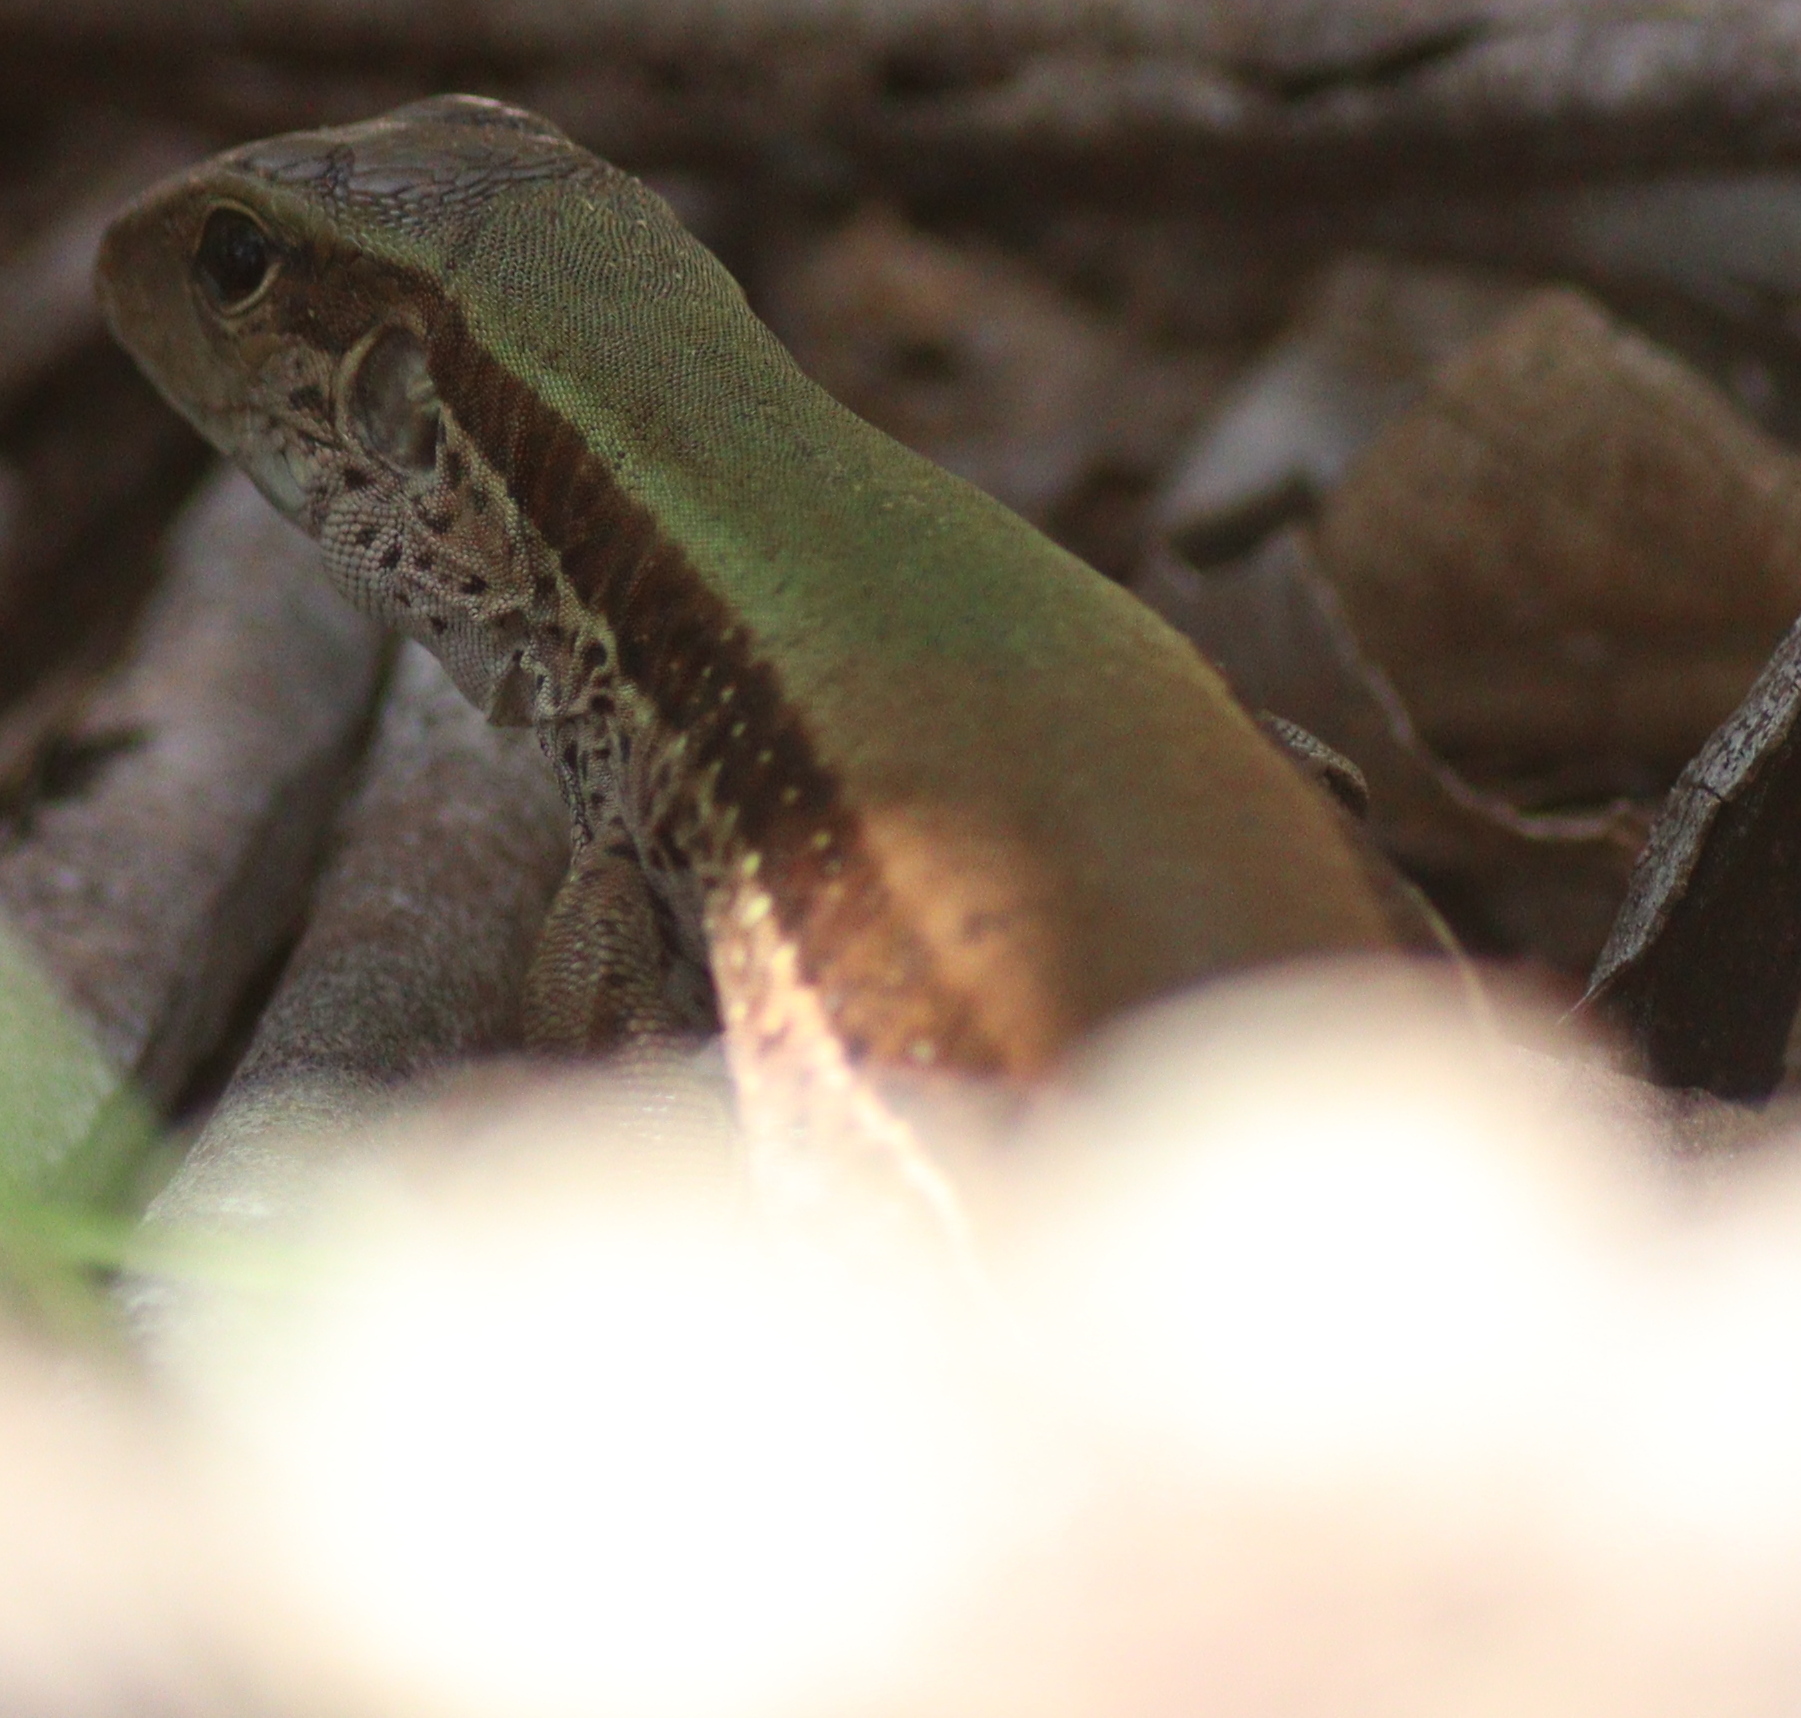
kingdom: Animalia
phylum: Chordata
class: Squamata
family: Teiidae
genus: Ameiva
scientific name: Ameiva ameiva
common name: Giant ameiva
